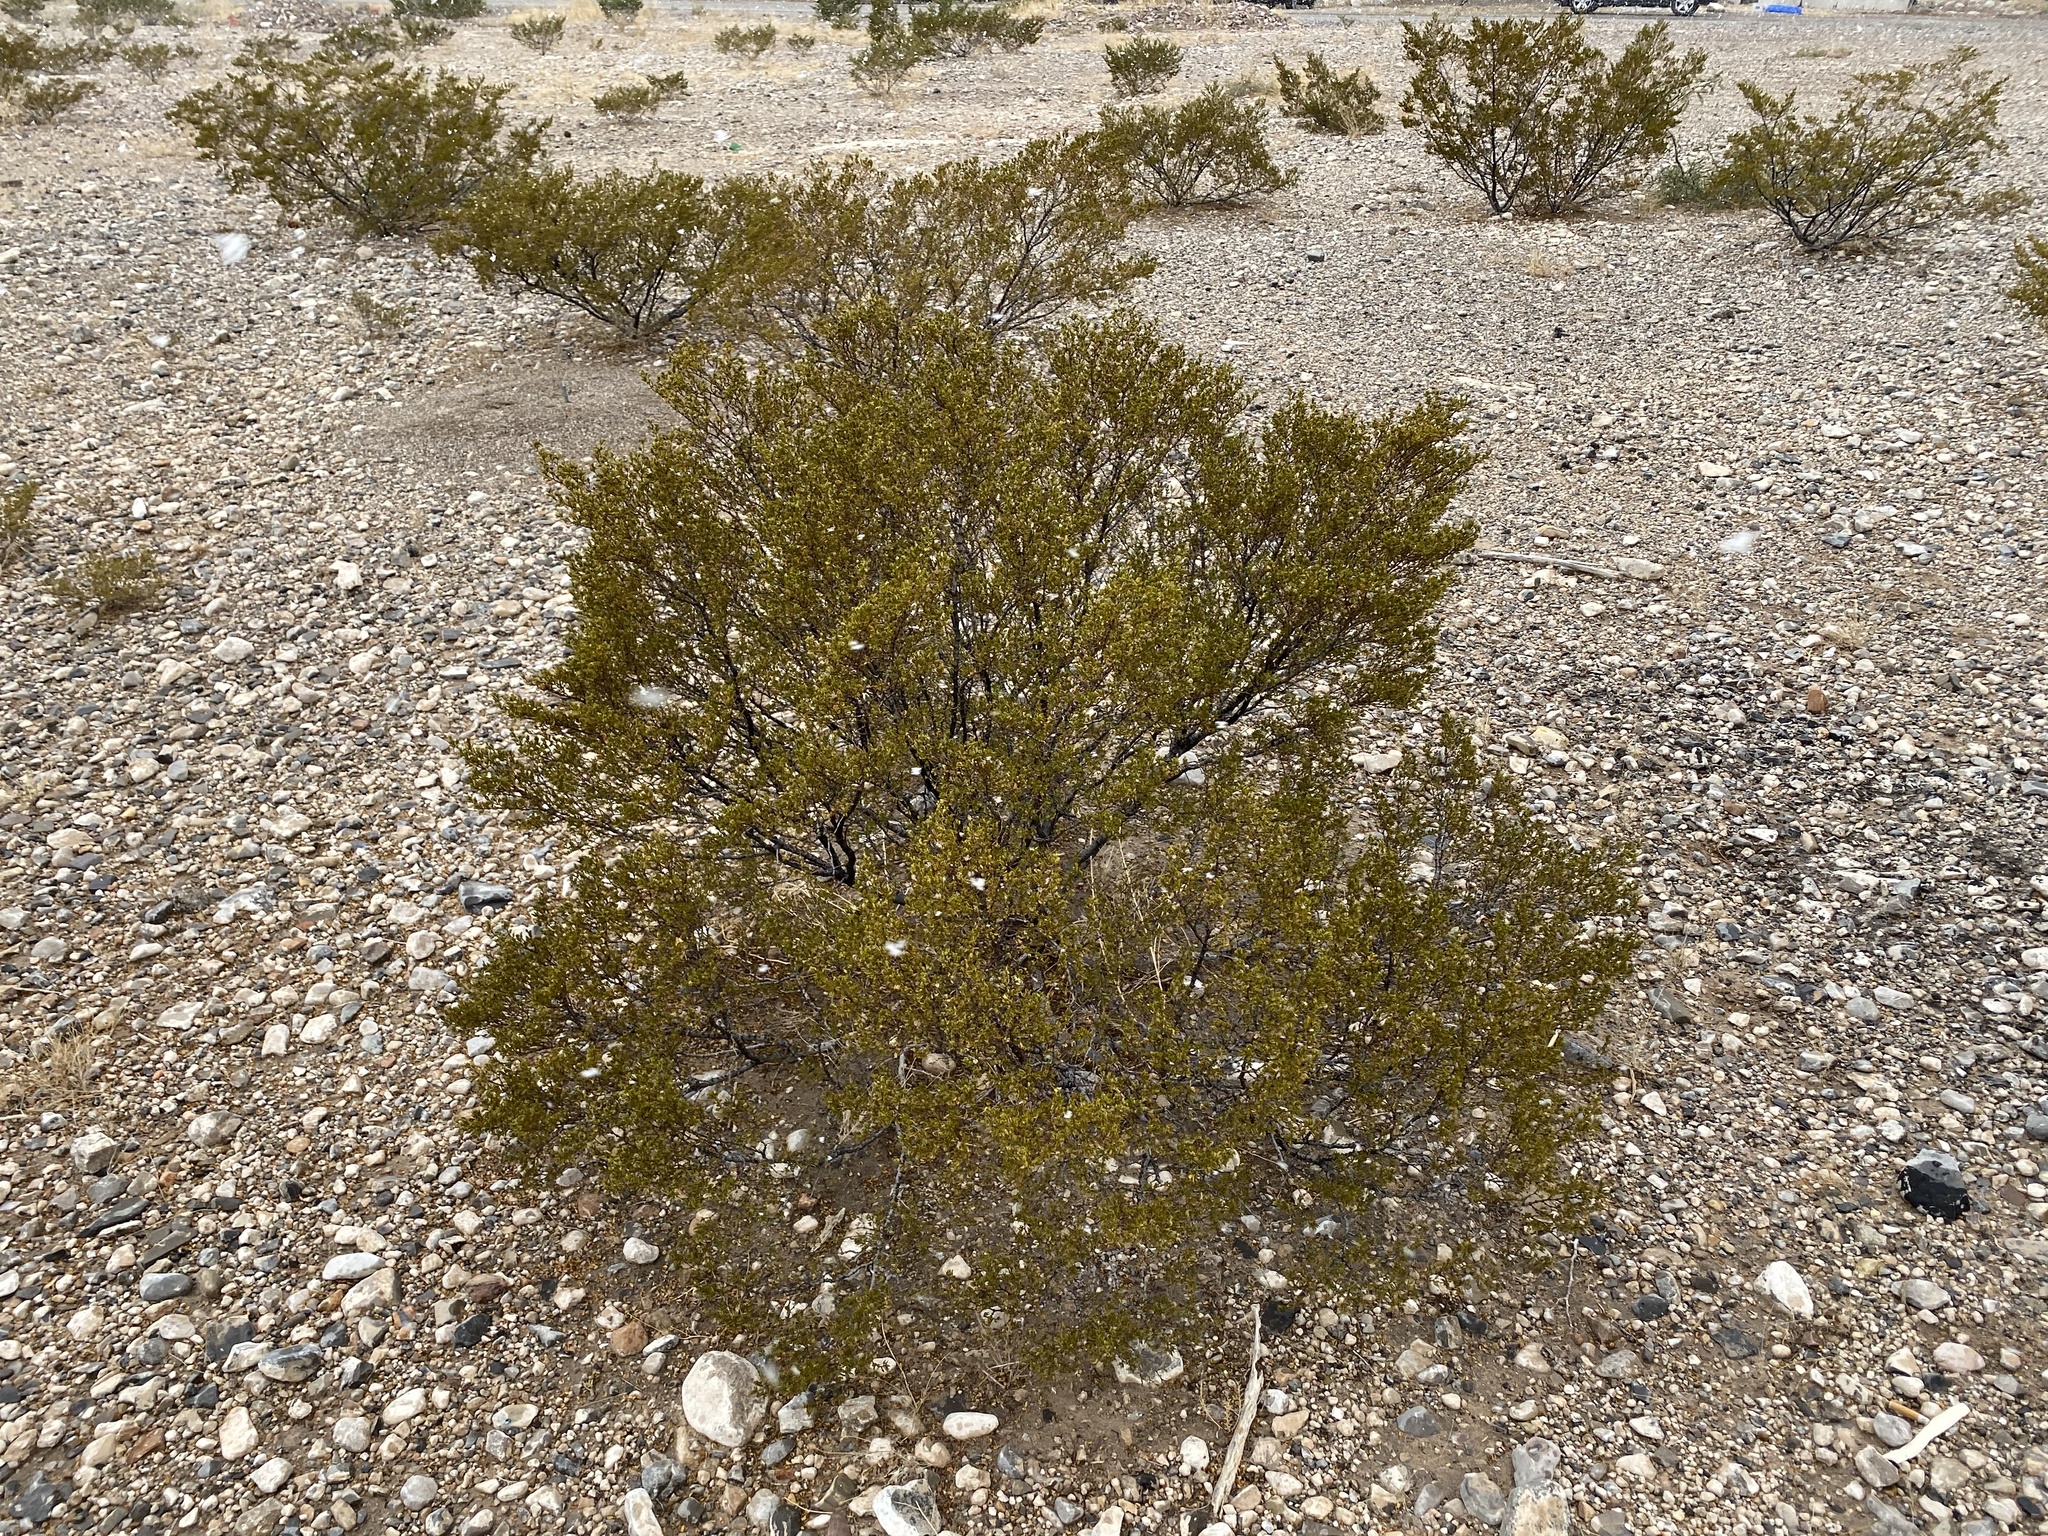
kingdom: Plantae
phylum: Tracheophyta
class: Magnoliopsida
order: Zygophyllales
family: Zygophyllaceae
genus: Larrea
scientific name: Larrea tridentata
